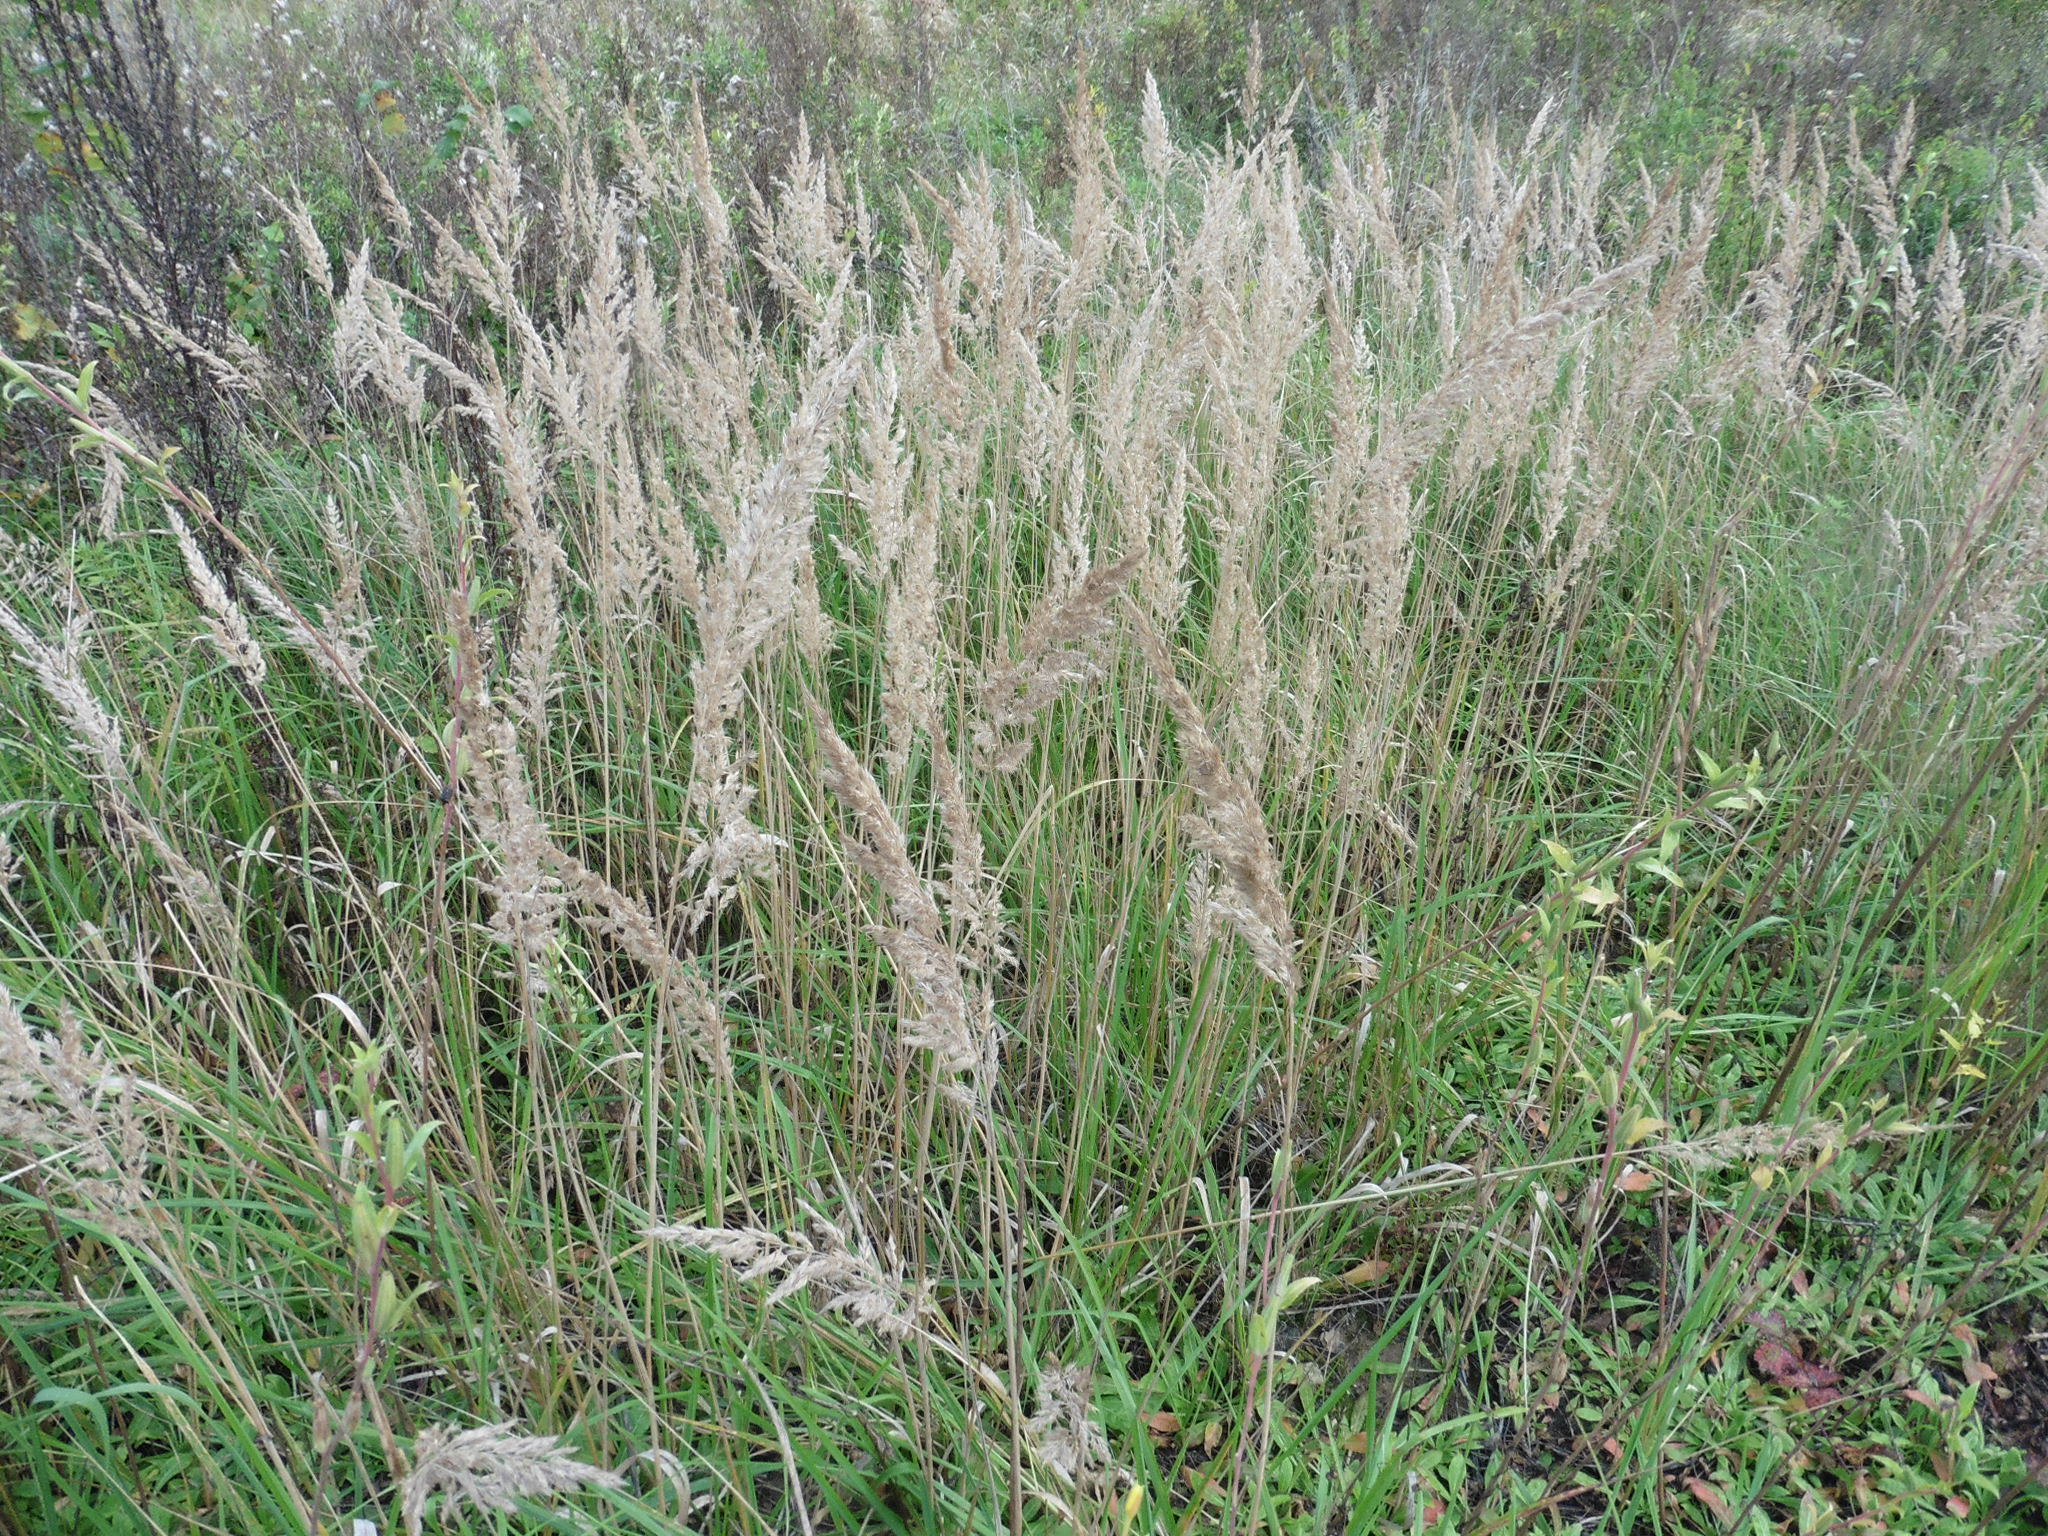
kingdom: Plantae
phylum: Tracheophyta
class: Liliopsida
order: Poales
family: Poaceae
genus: Calamagrostis
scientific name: Calamagrostis epigejos
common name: Wood small-reed
